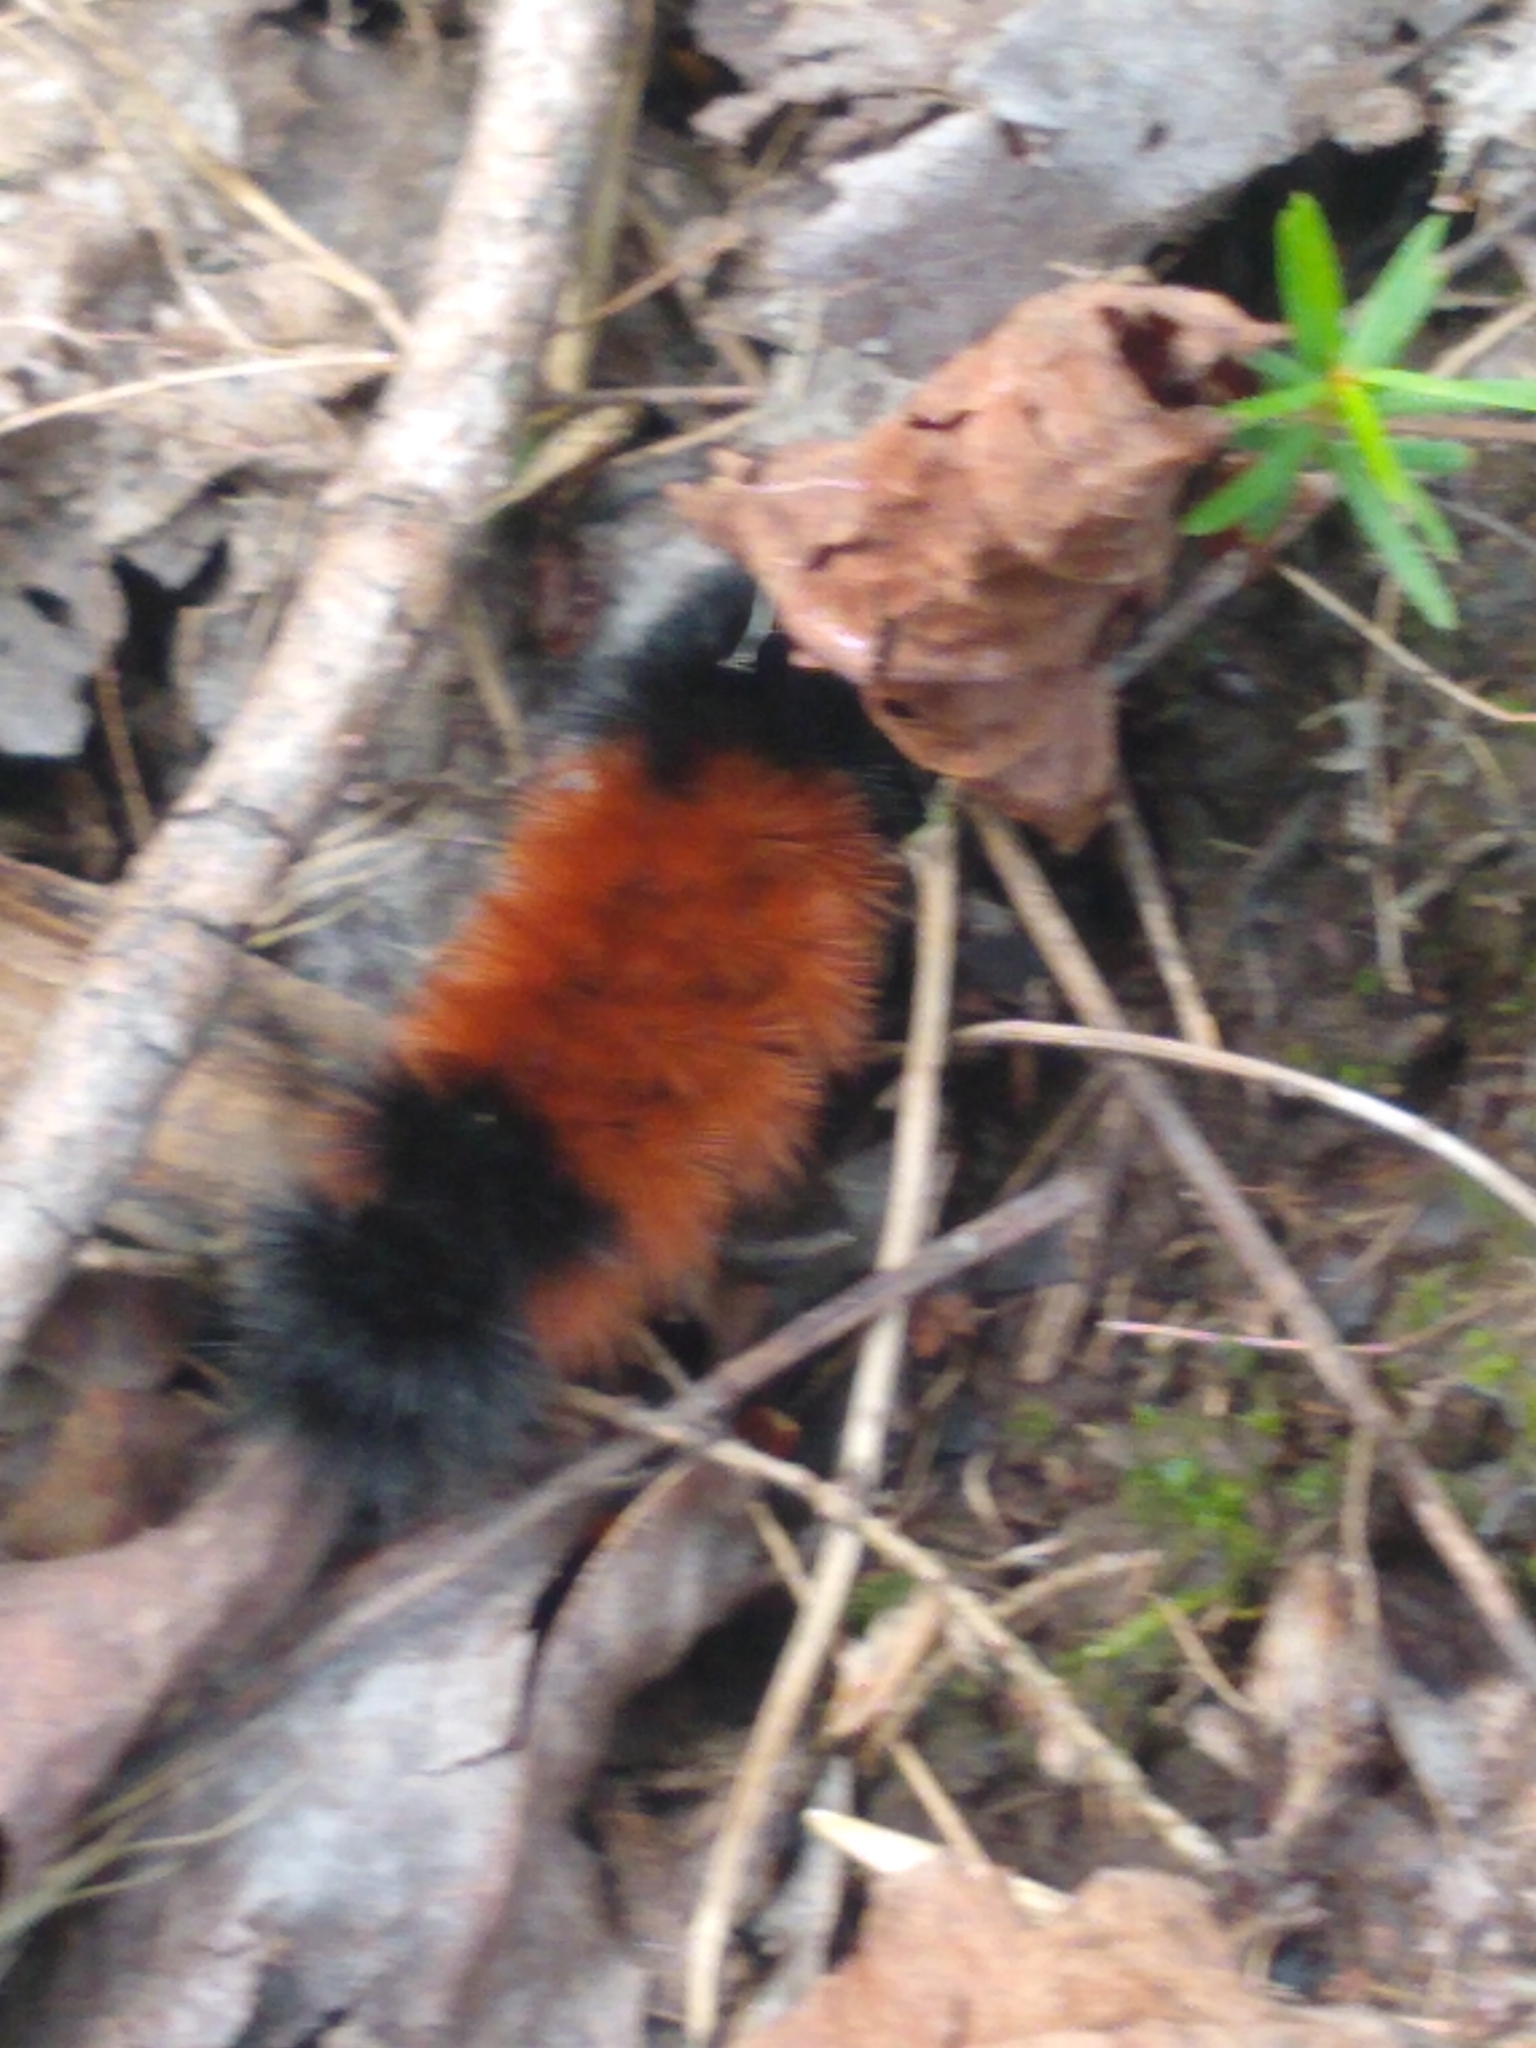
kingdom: Animalia
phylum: Arthropoda
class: Insecta
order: Lepidoptera
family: Erebidae
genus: Pyrrharctia
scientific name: Pyrrharctia isabella
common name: Isabella tiger moth
